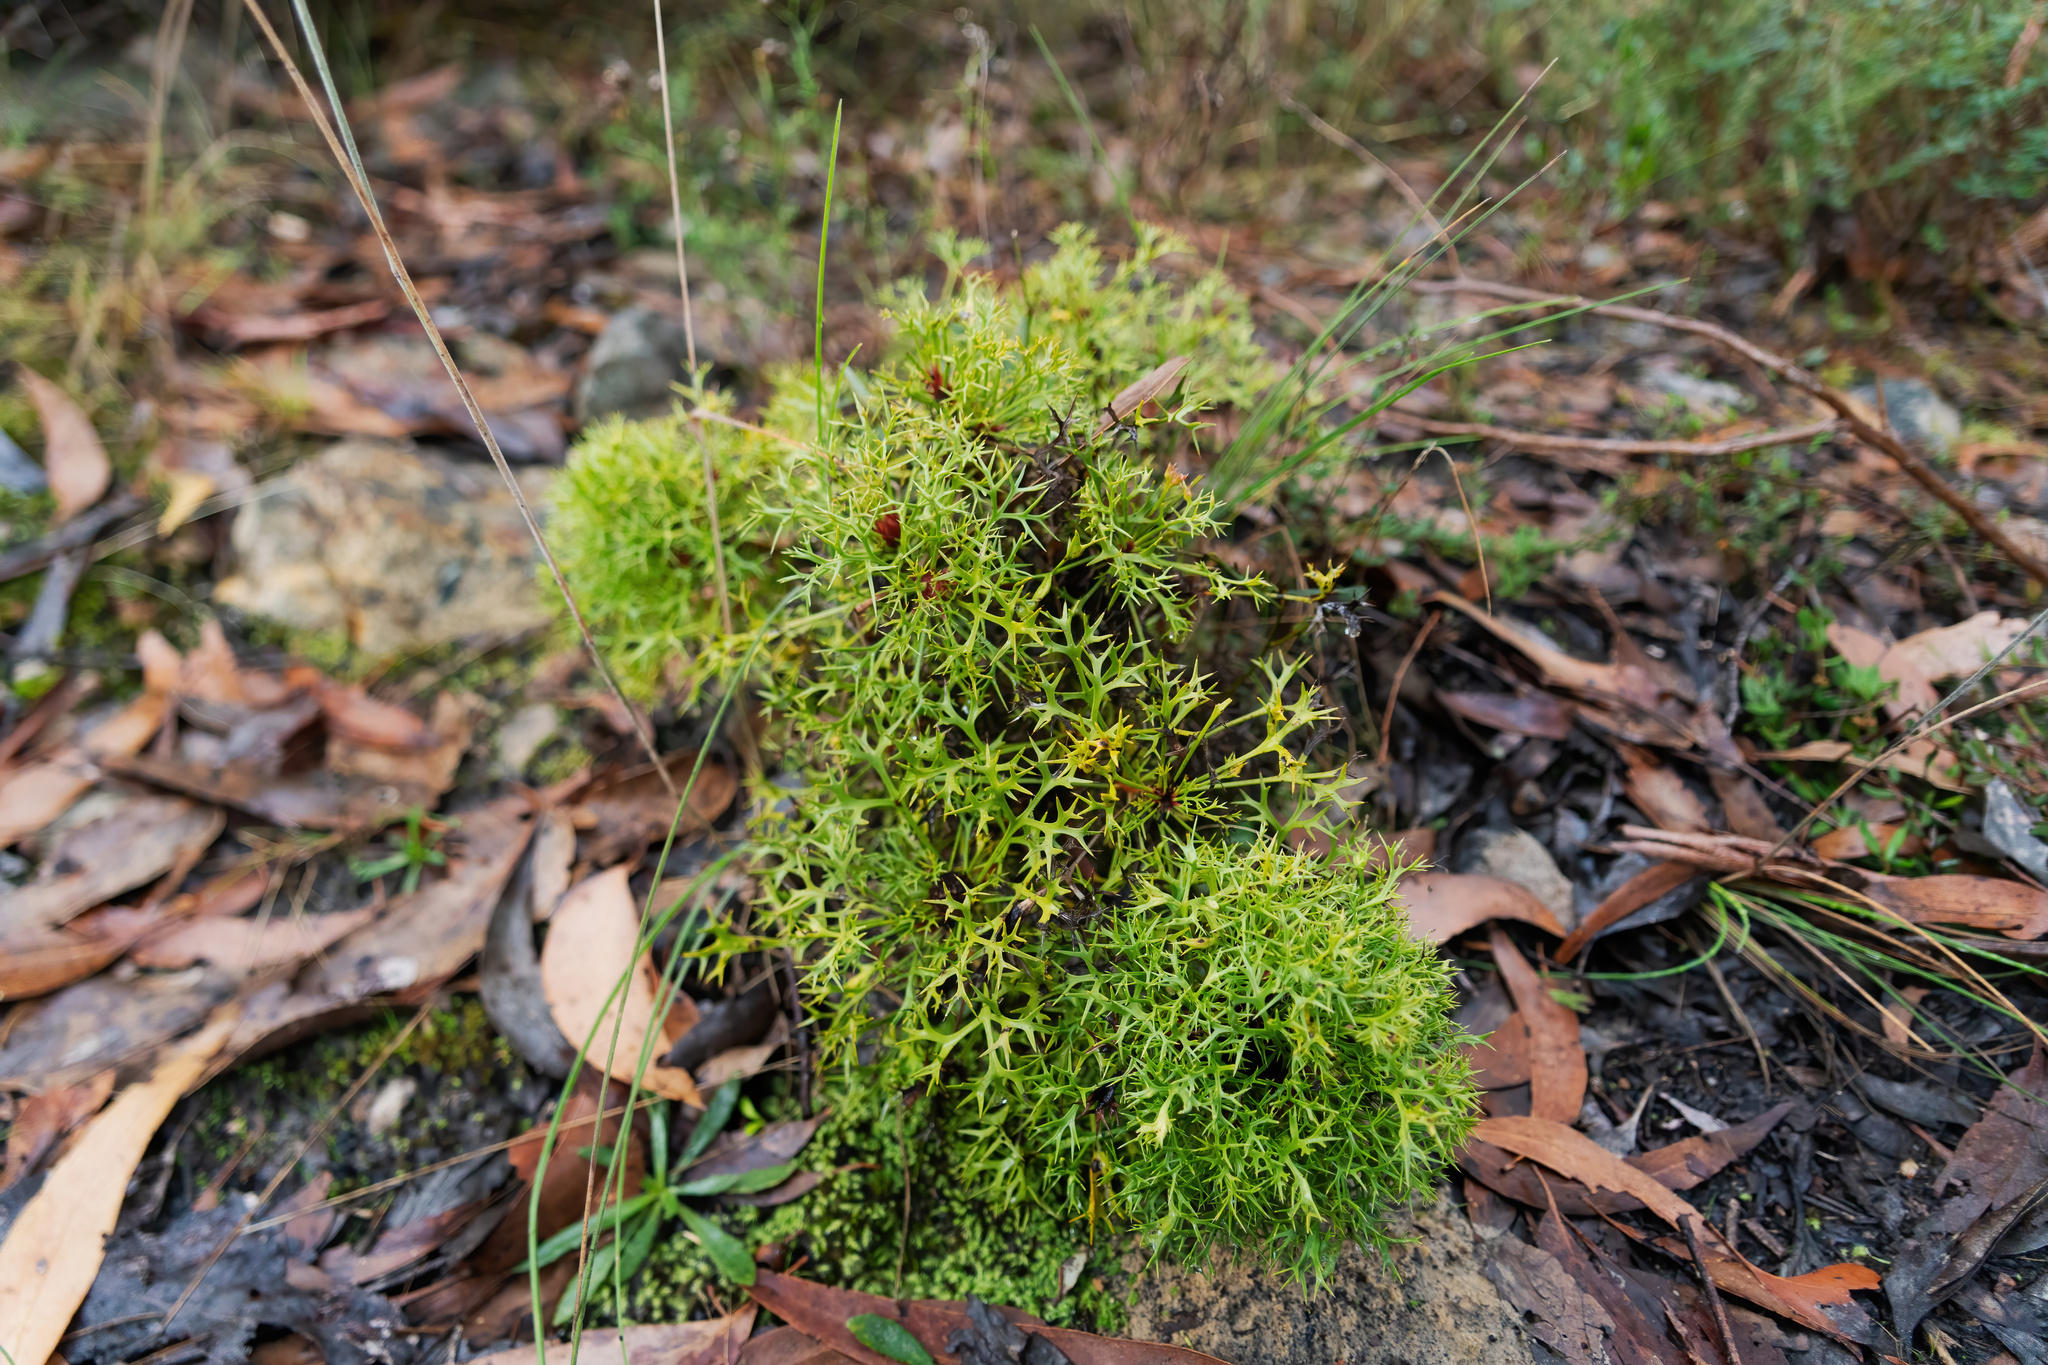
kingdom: Plantae
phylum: Tracheophyta
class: Magnoliopsida
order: Proteales
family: Proteaceae
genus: Isopogon
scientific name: Isopogon ceratophyllus
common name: Horny cone-bush
